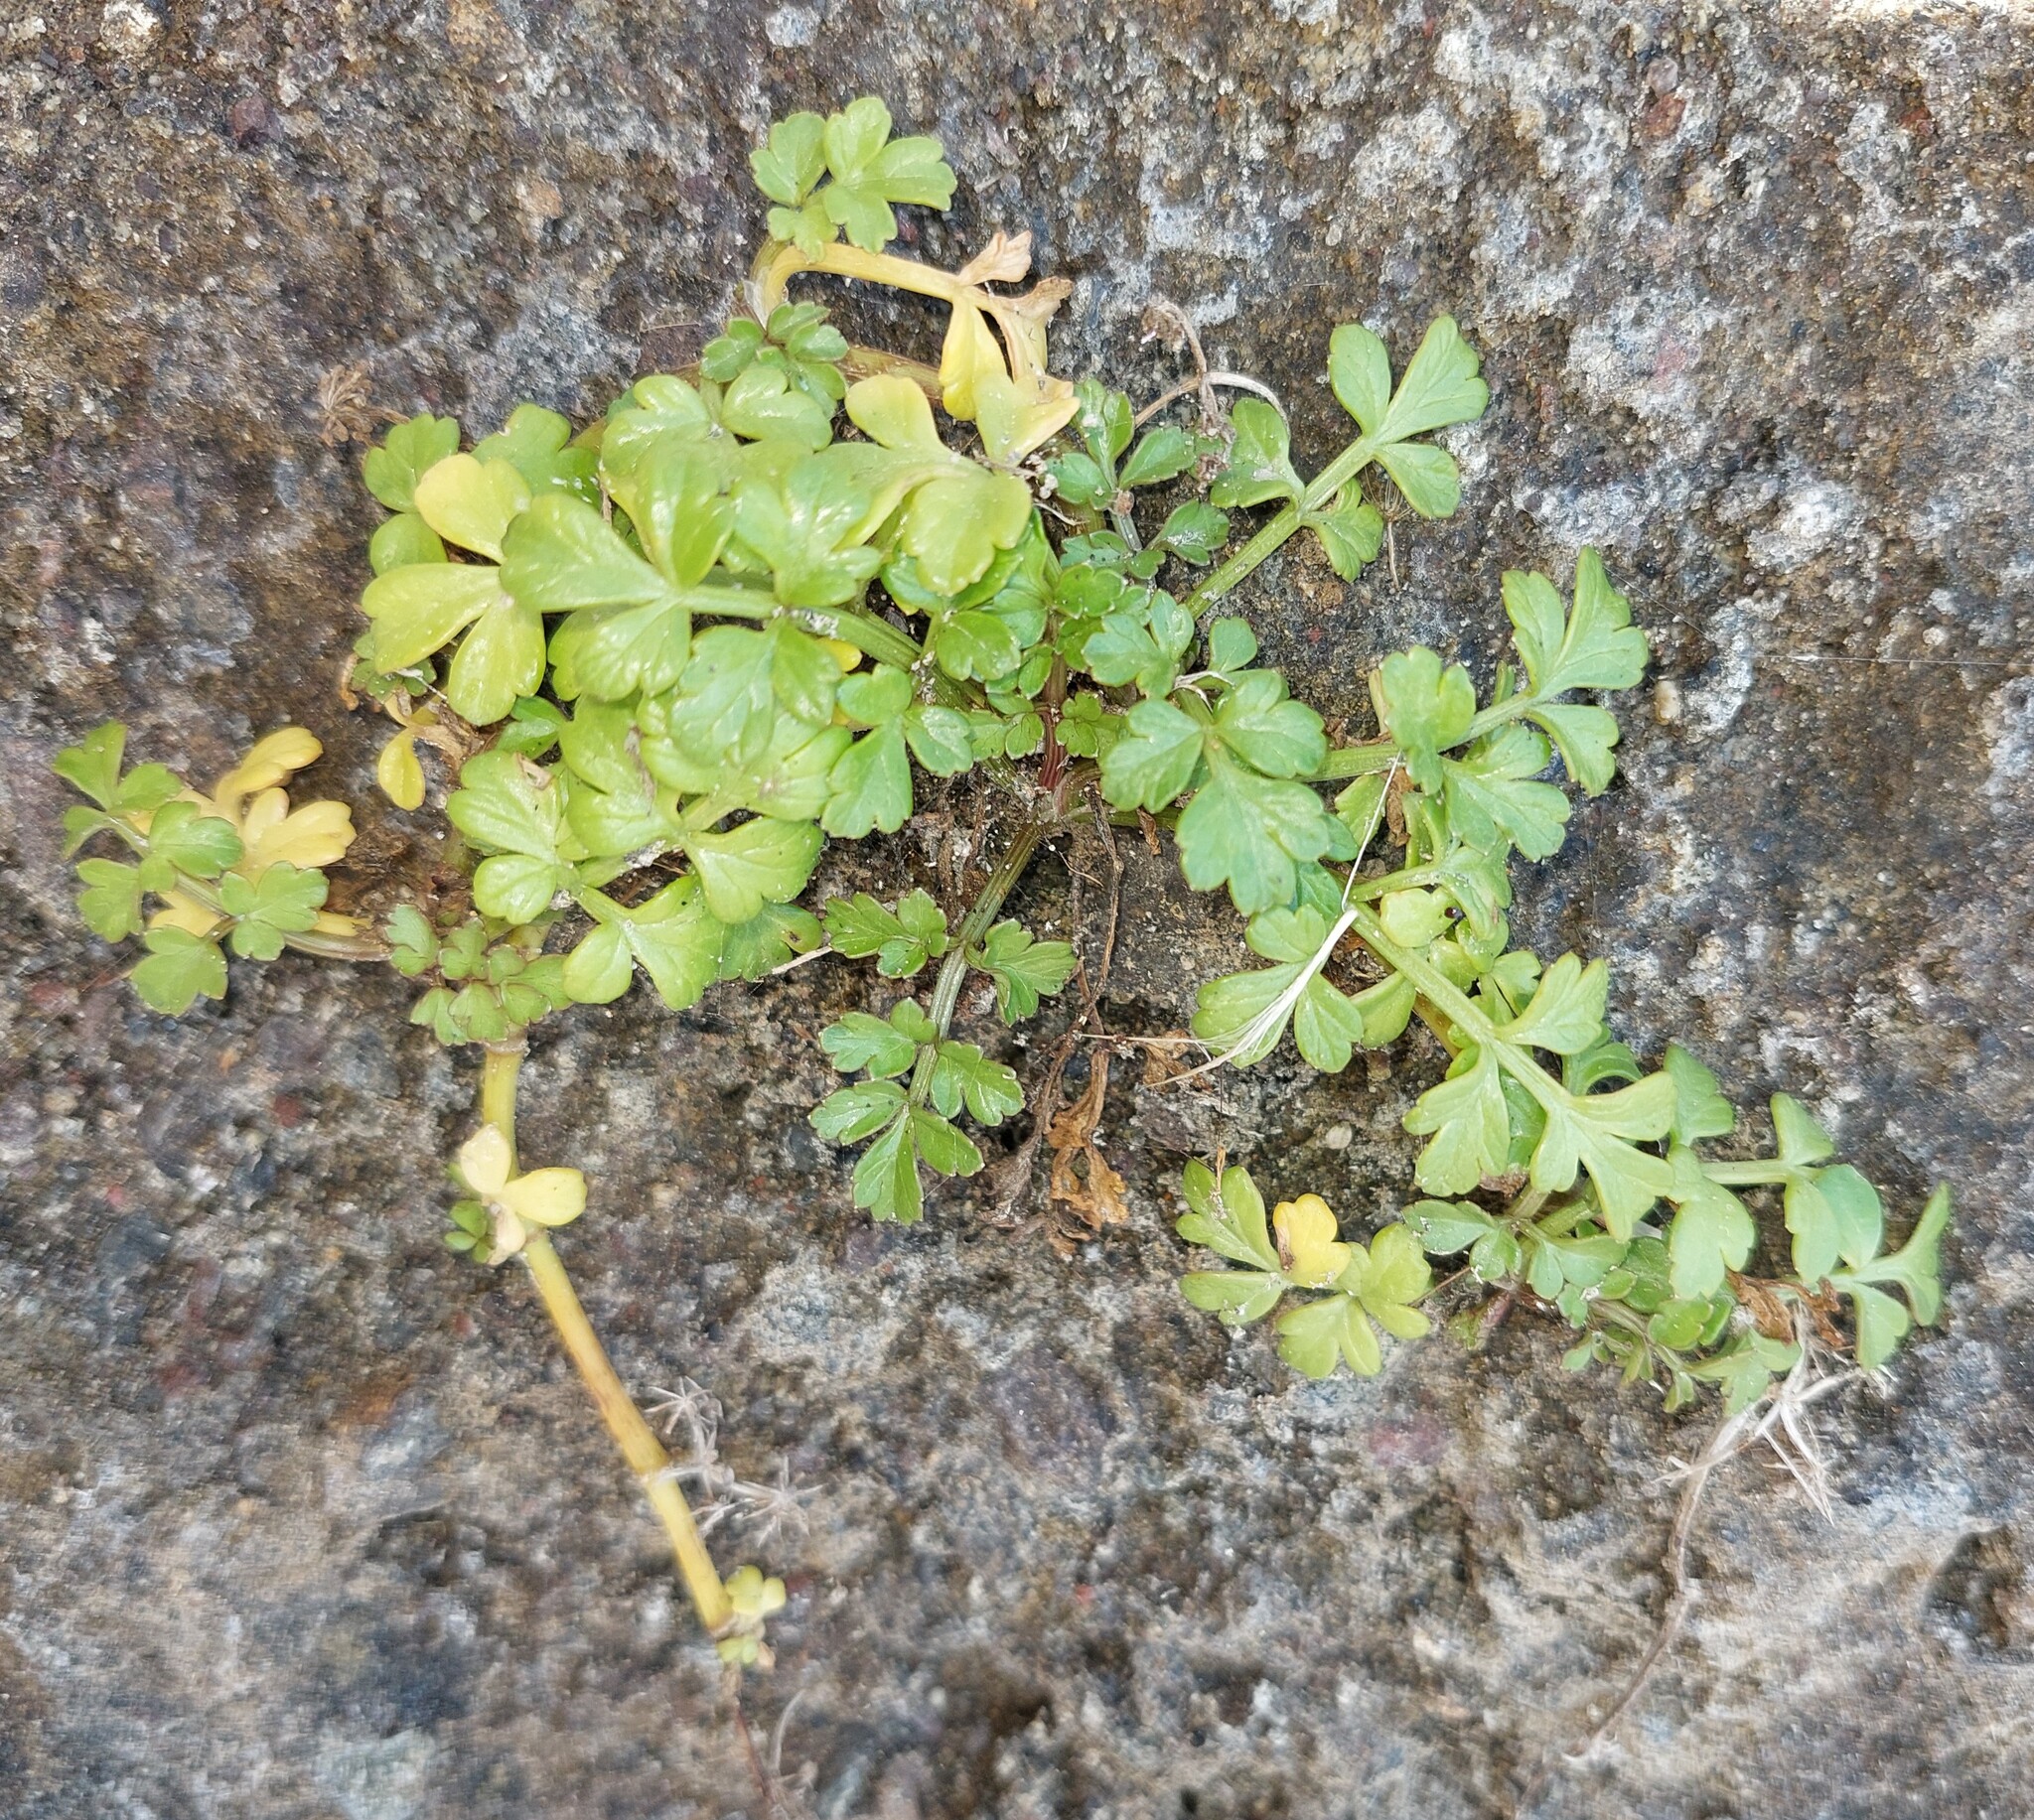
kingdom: Plantae
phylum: Tracheophyta
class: Magnoliopsida
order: Apiales
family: Apiaceae
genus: Apium
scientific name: Apium prostratum
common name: Prostrate marshwort
